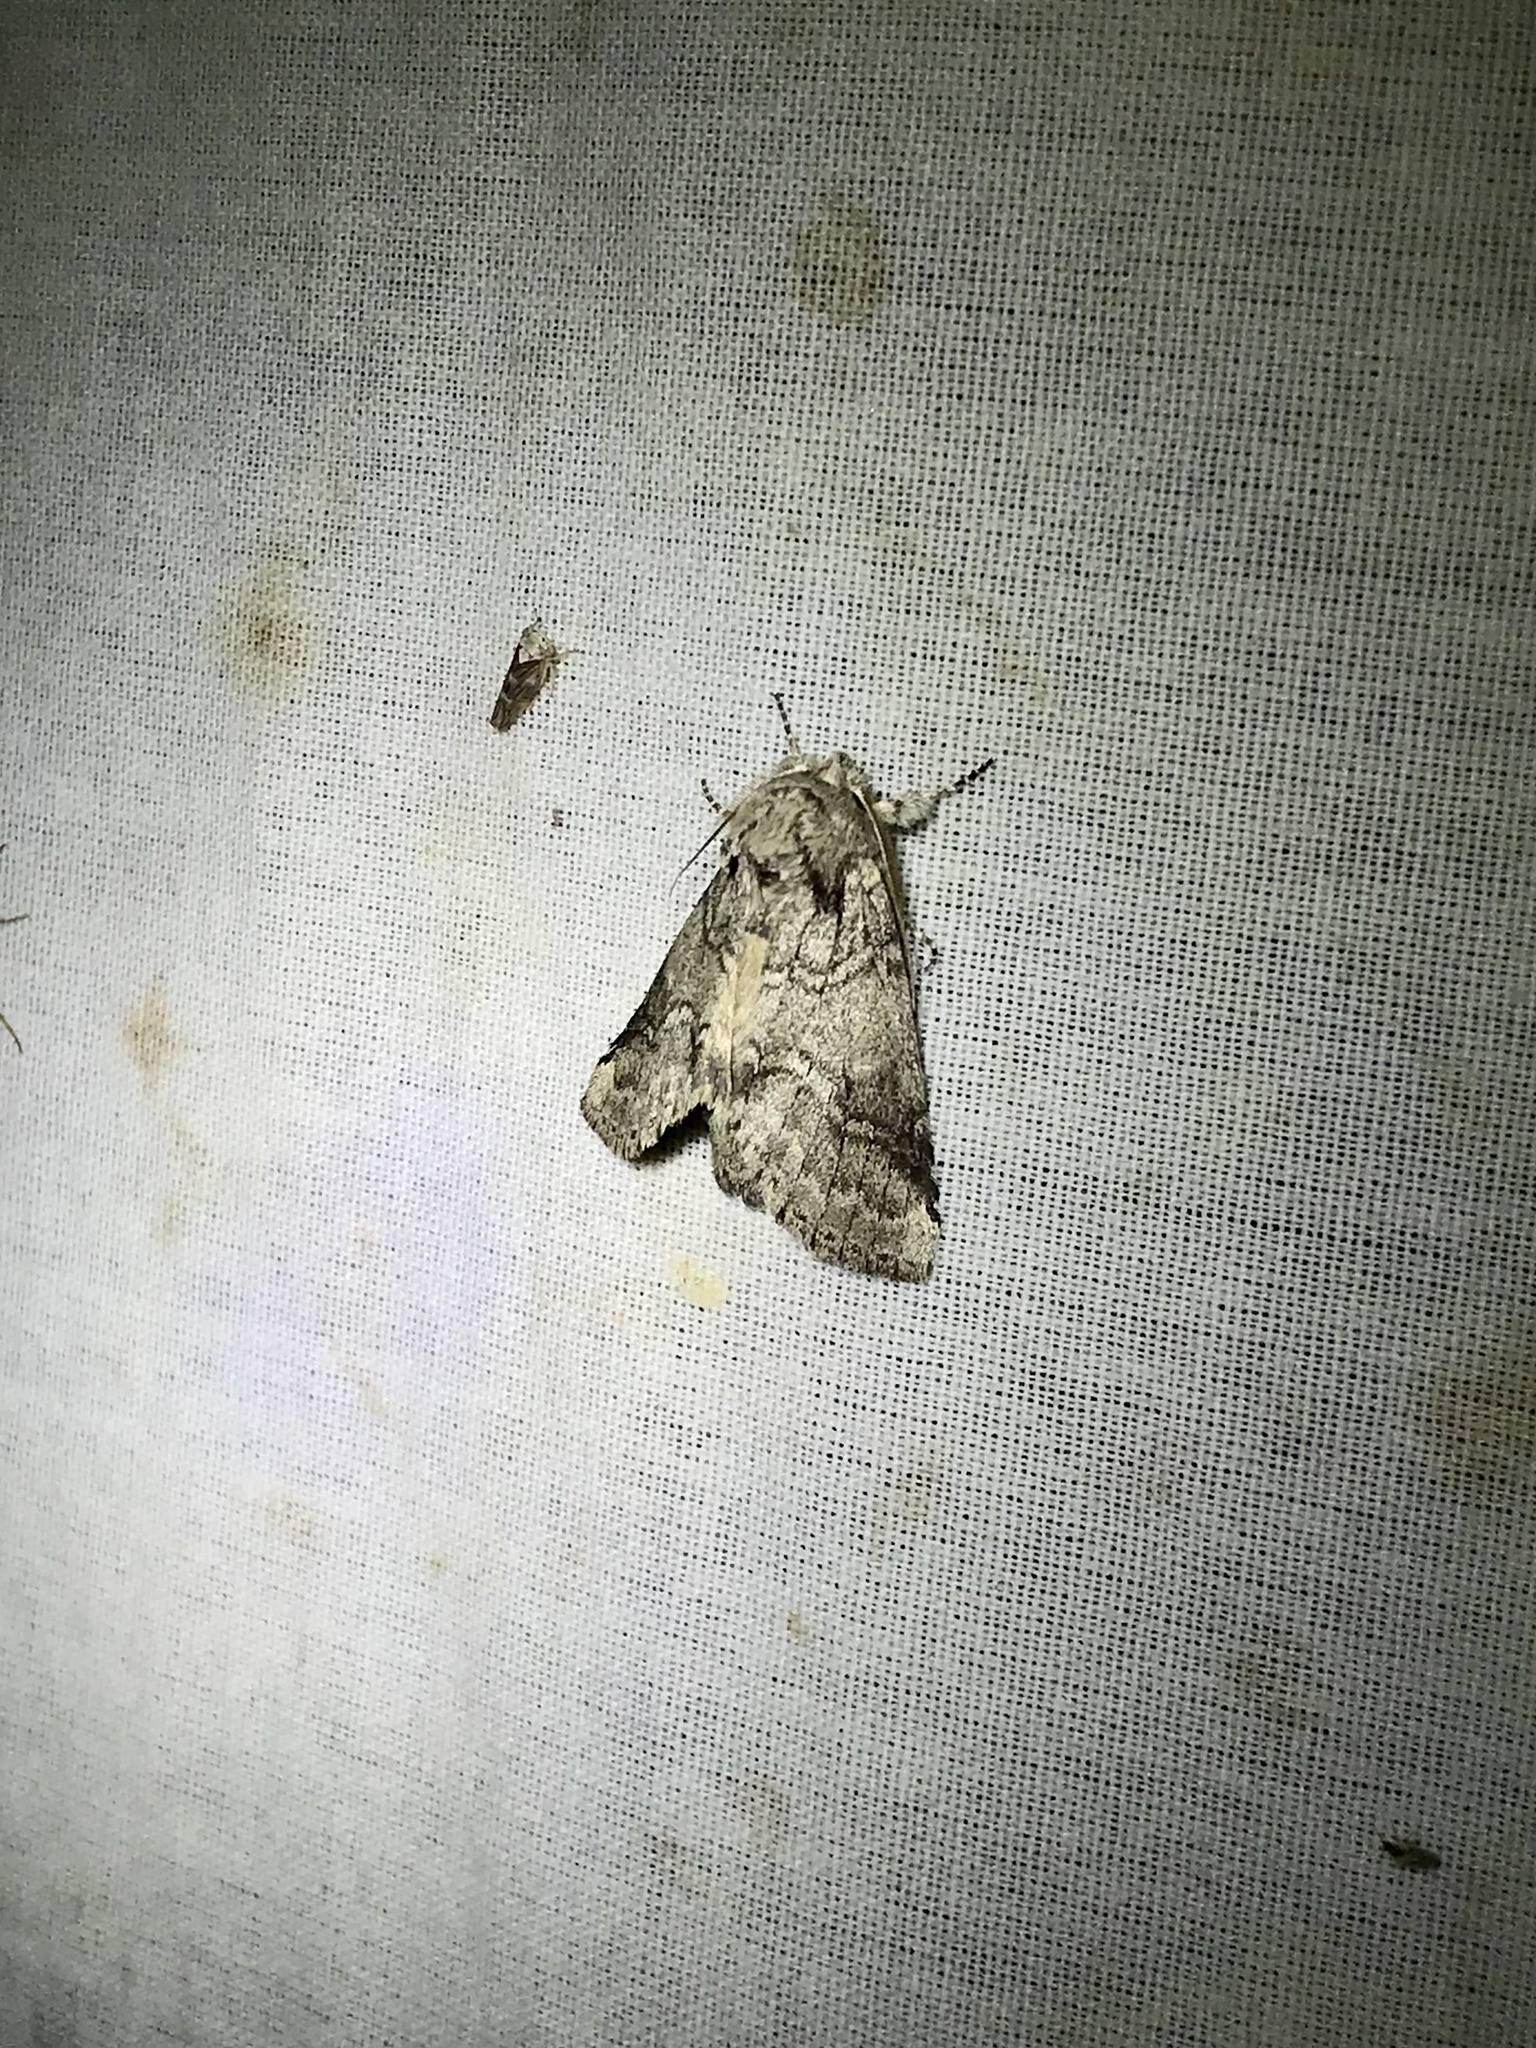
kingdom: Animalia
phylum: Arthropoda
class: Insecta
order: Lepidoptera
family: Notodontidae
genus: Lochmaeus
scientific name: Lochmaeus bilineata
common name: Double-lined prominent
